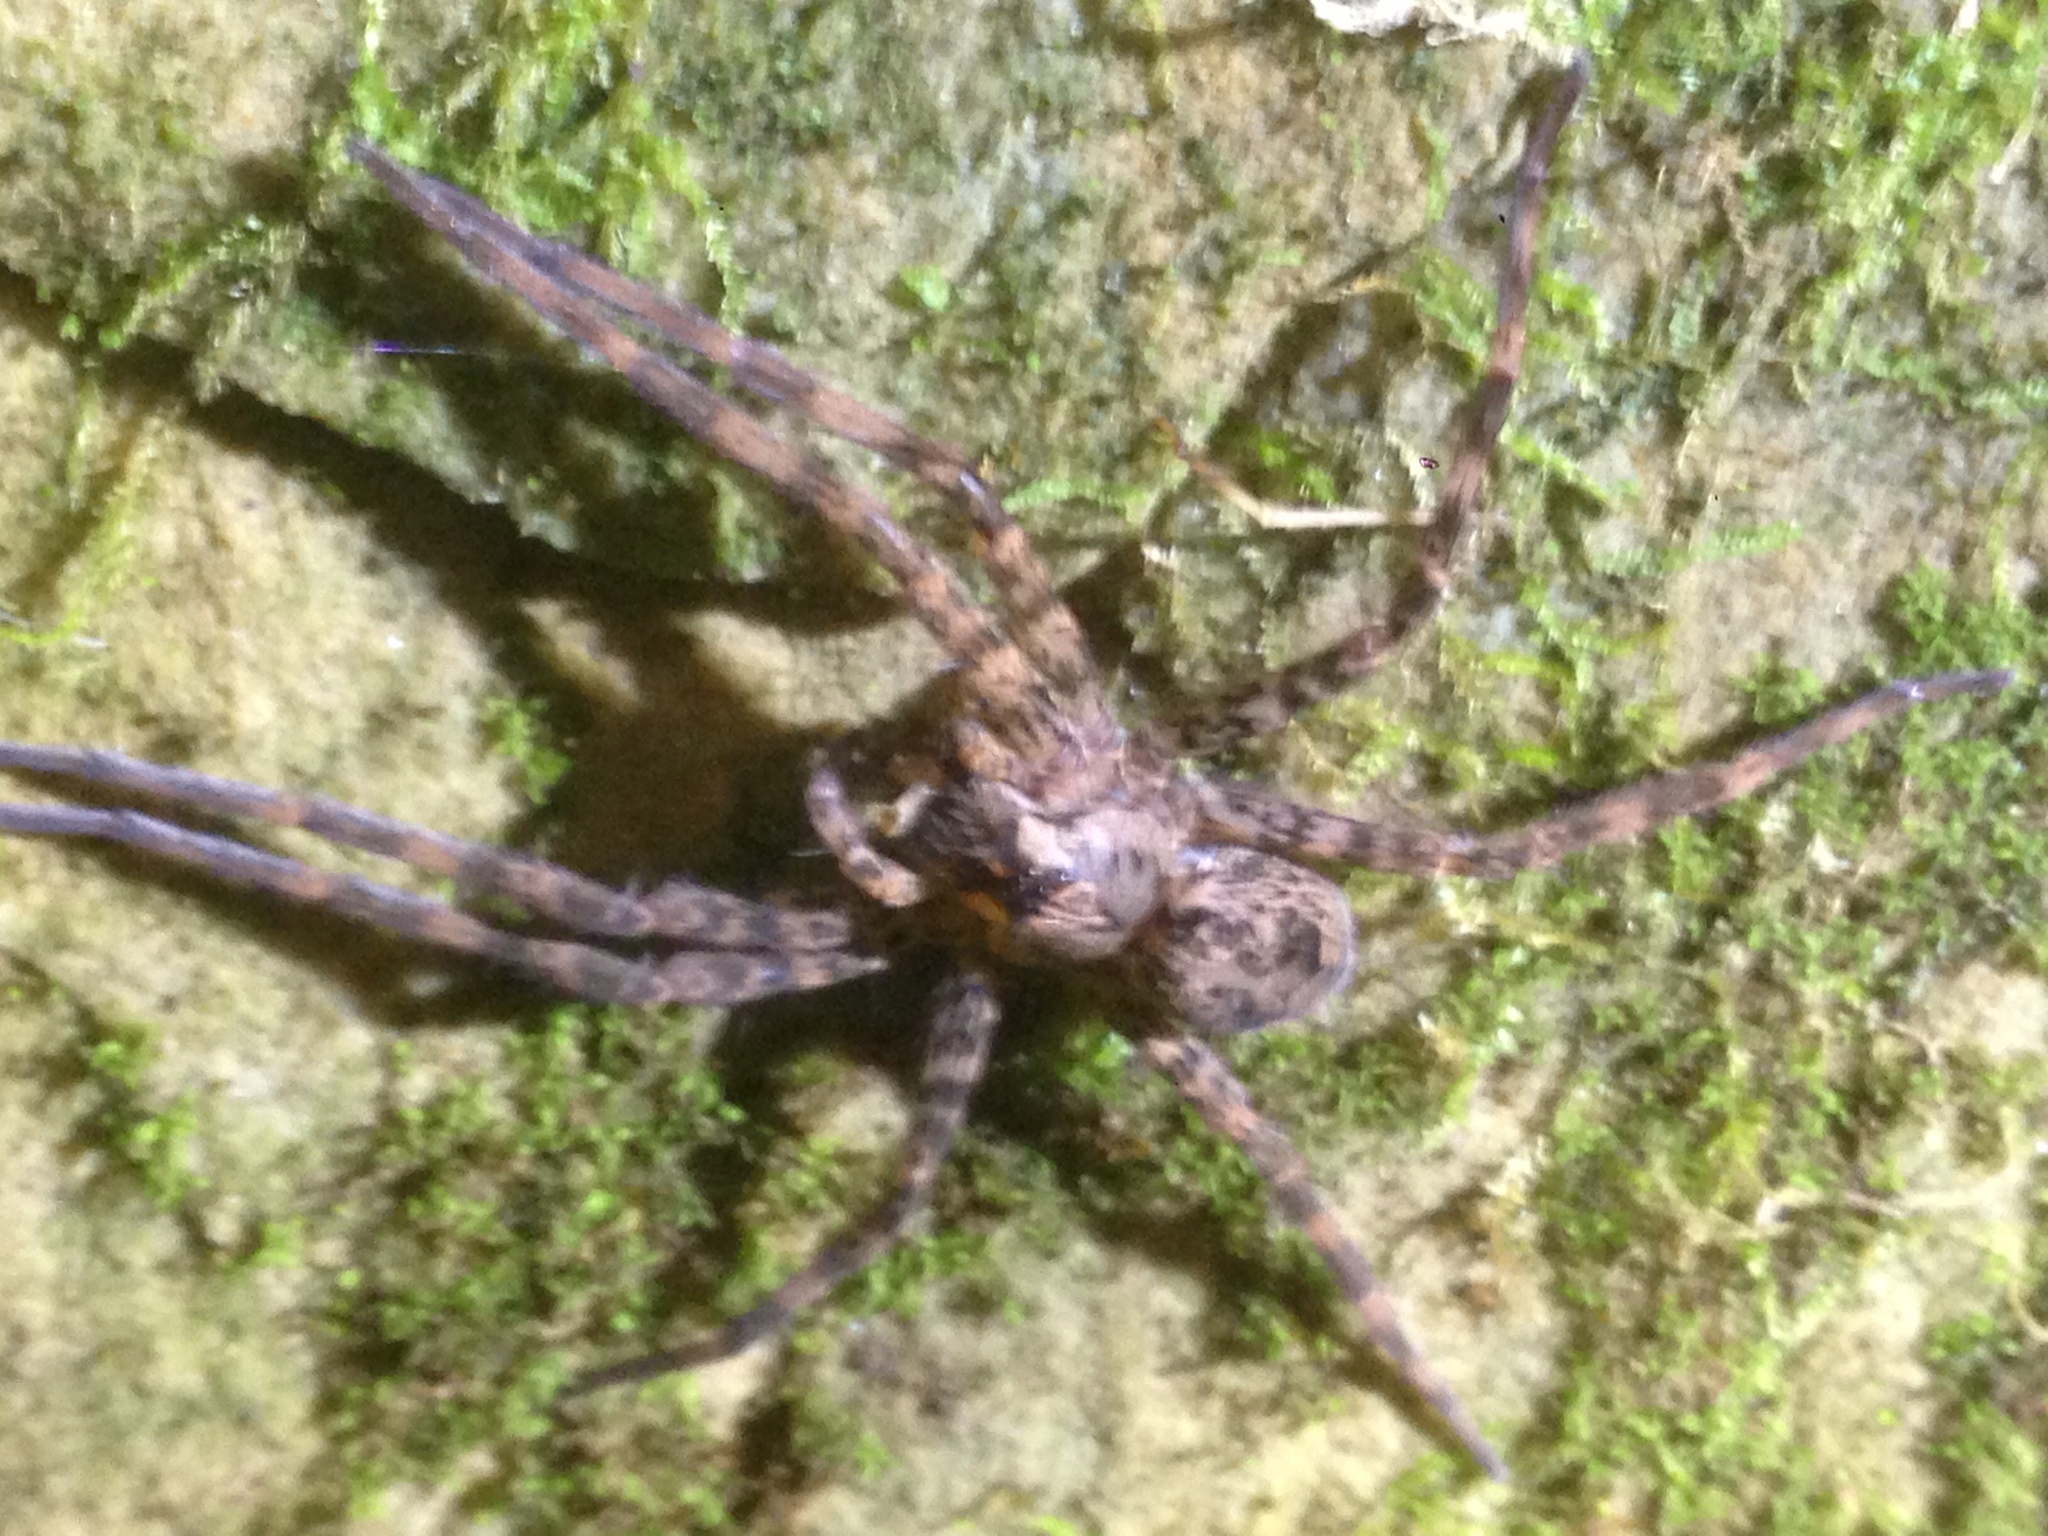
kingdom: Animalia
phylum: Arthropoda
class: Arachnida
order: Araneae
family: Pisauridae
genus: Dolomedes
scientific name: Dolomedes tenebrosus
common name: Dark fishing spider
